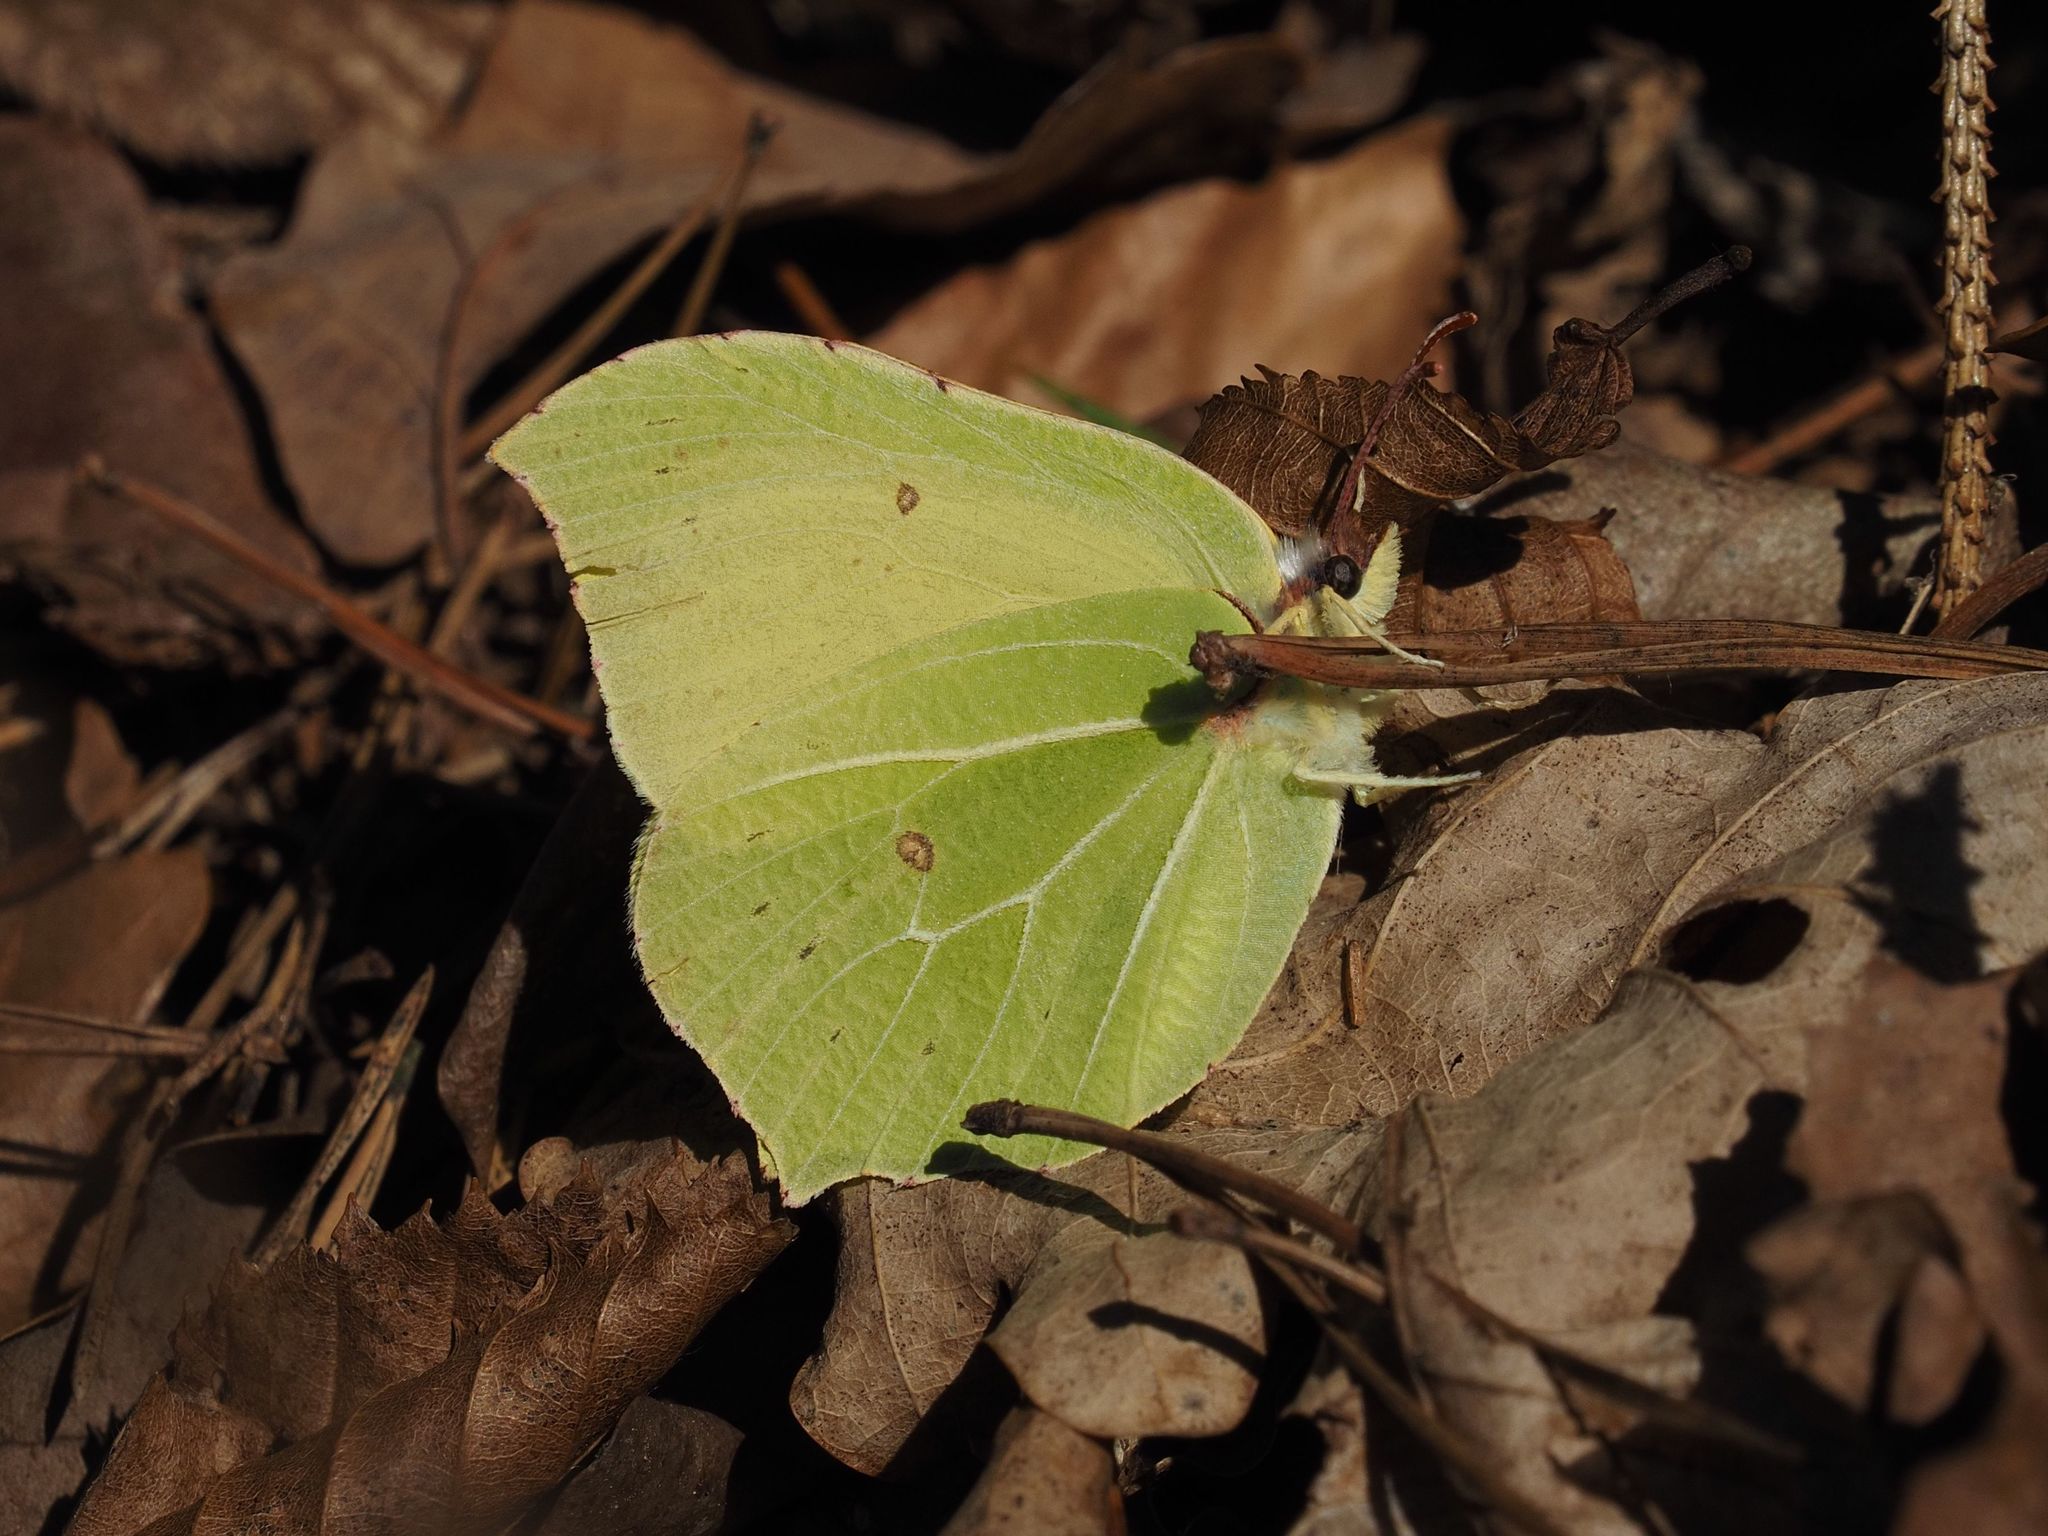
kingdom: Animalia
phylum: Arthropoda
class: Insecta
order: Lepidoptera
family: Pieridae
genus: Gonepteryx
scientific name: Gonepteryx rhamni
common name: Brimstone
